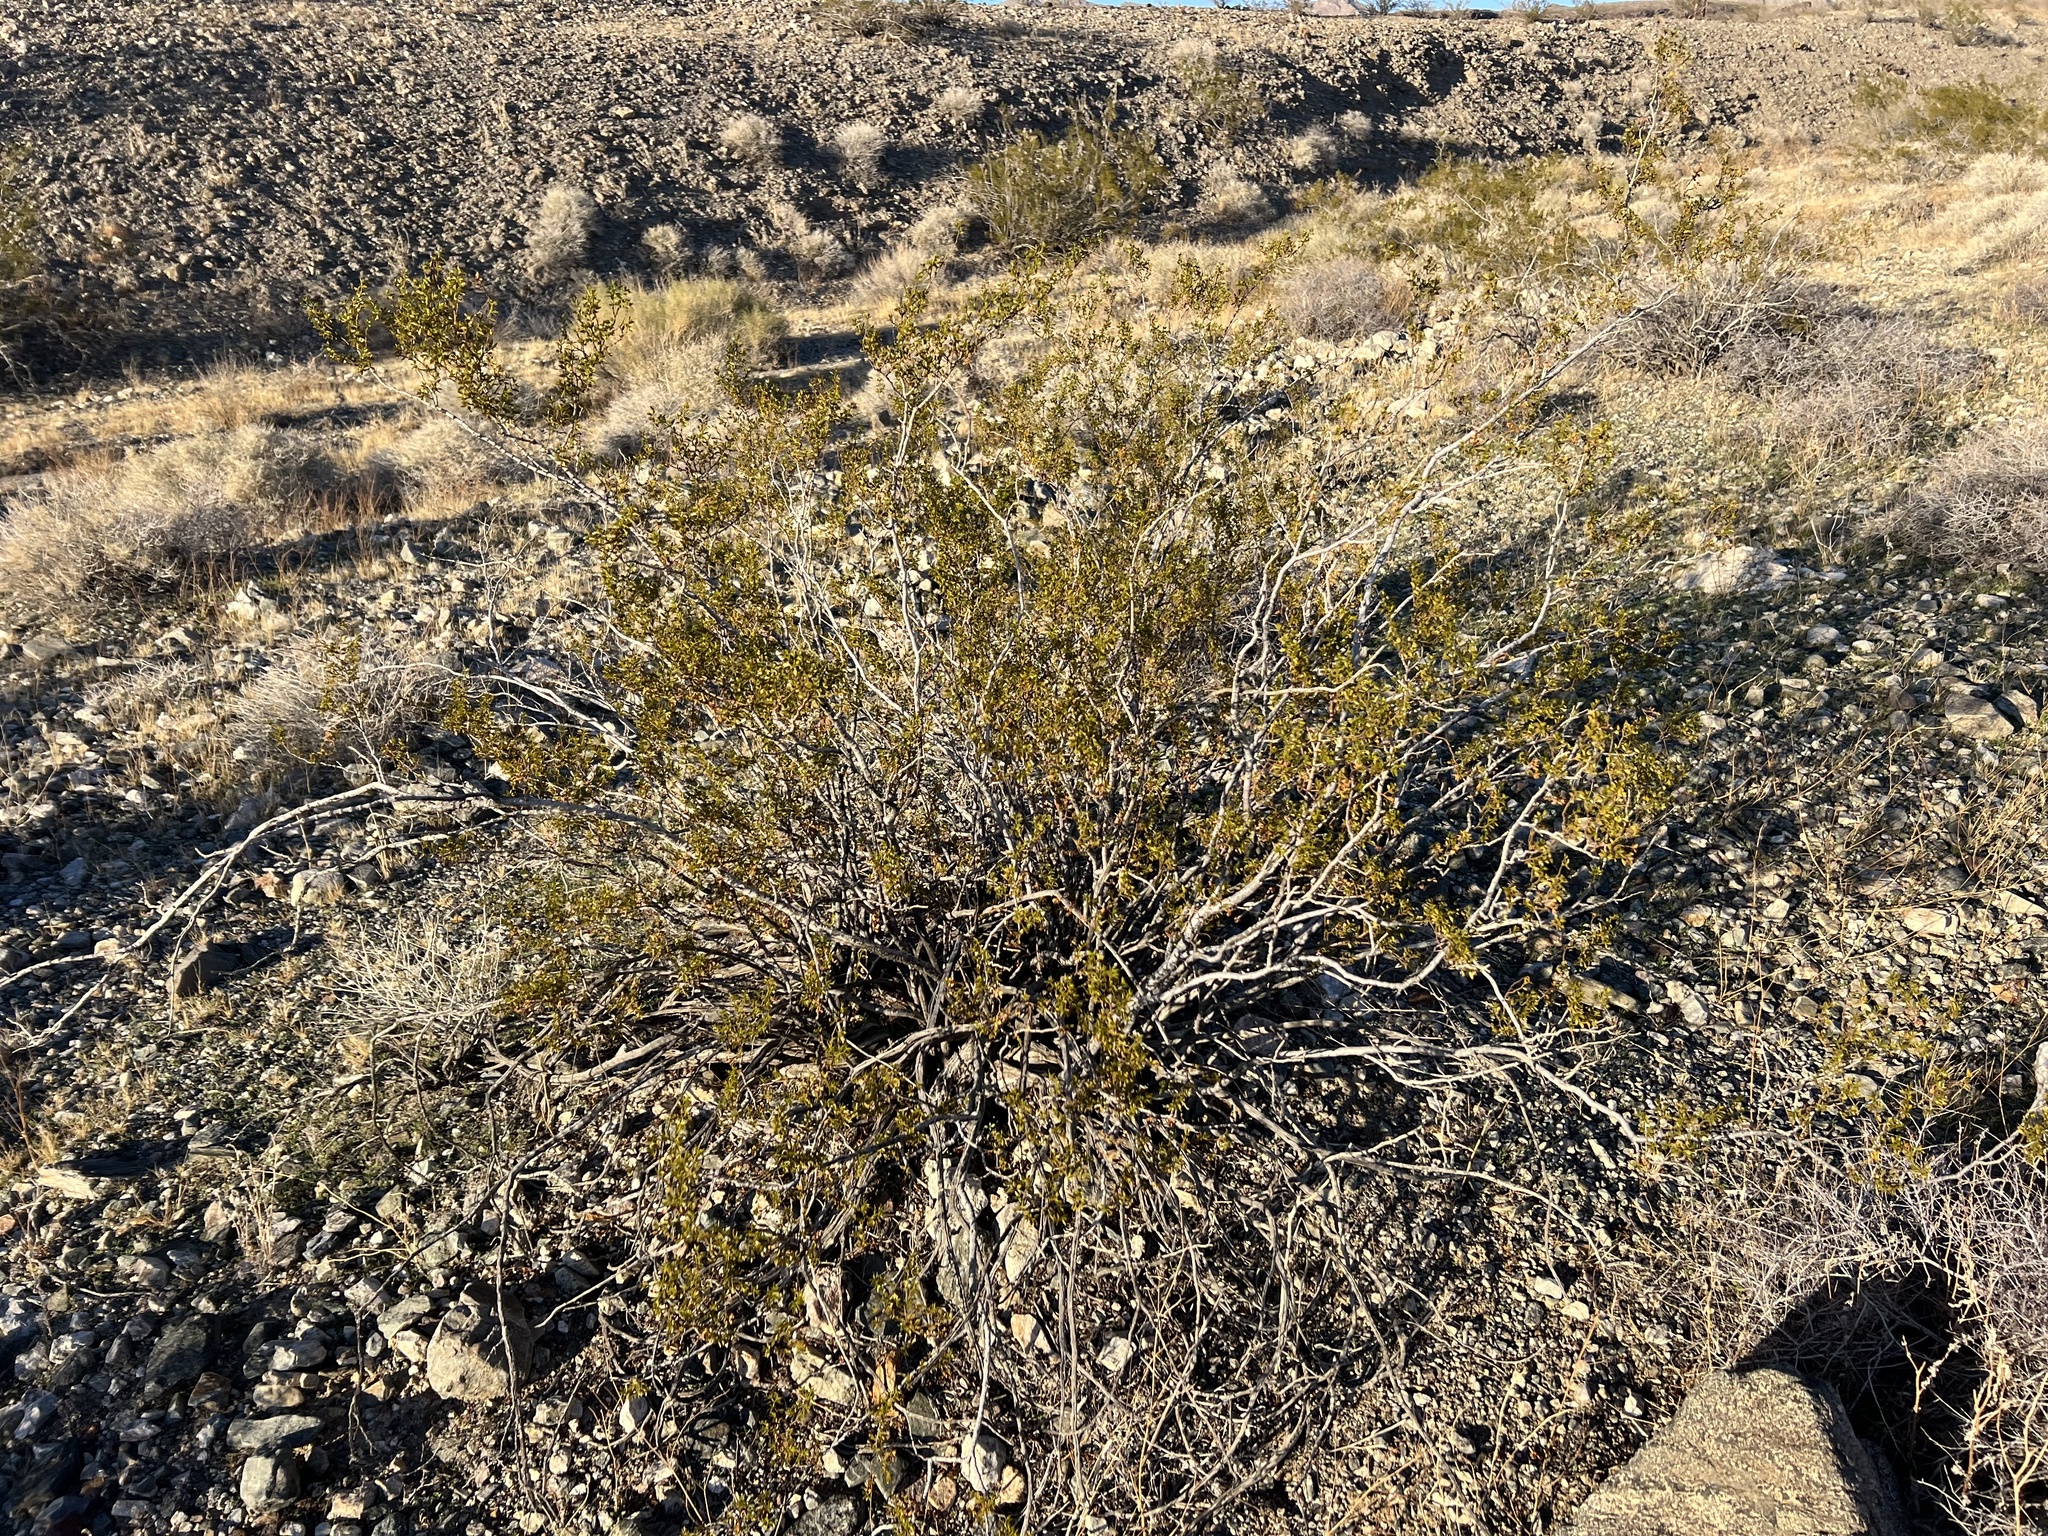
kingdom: Plantae
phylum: Tracheophyta
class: Magnoliopsida
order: Zygophyllales
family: Zygophyllaceae
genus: Larrea
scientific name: Larrea tridentata
